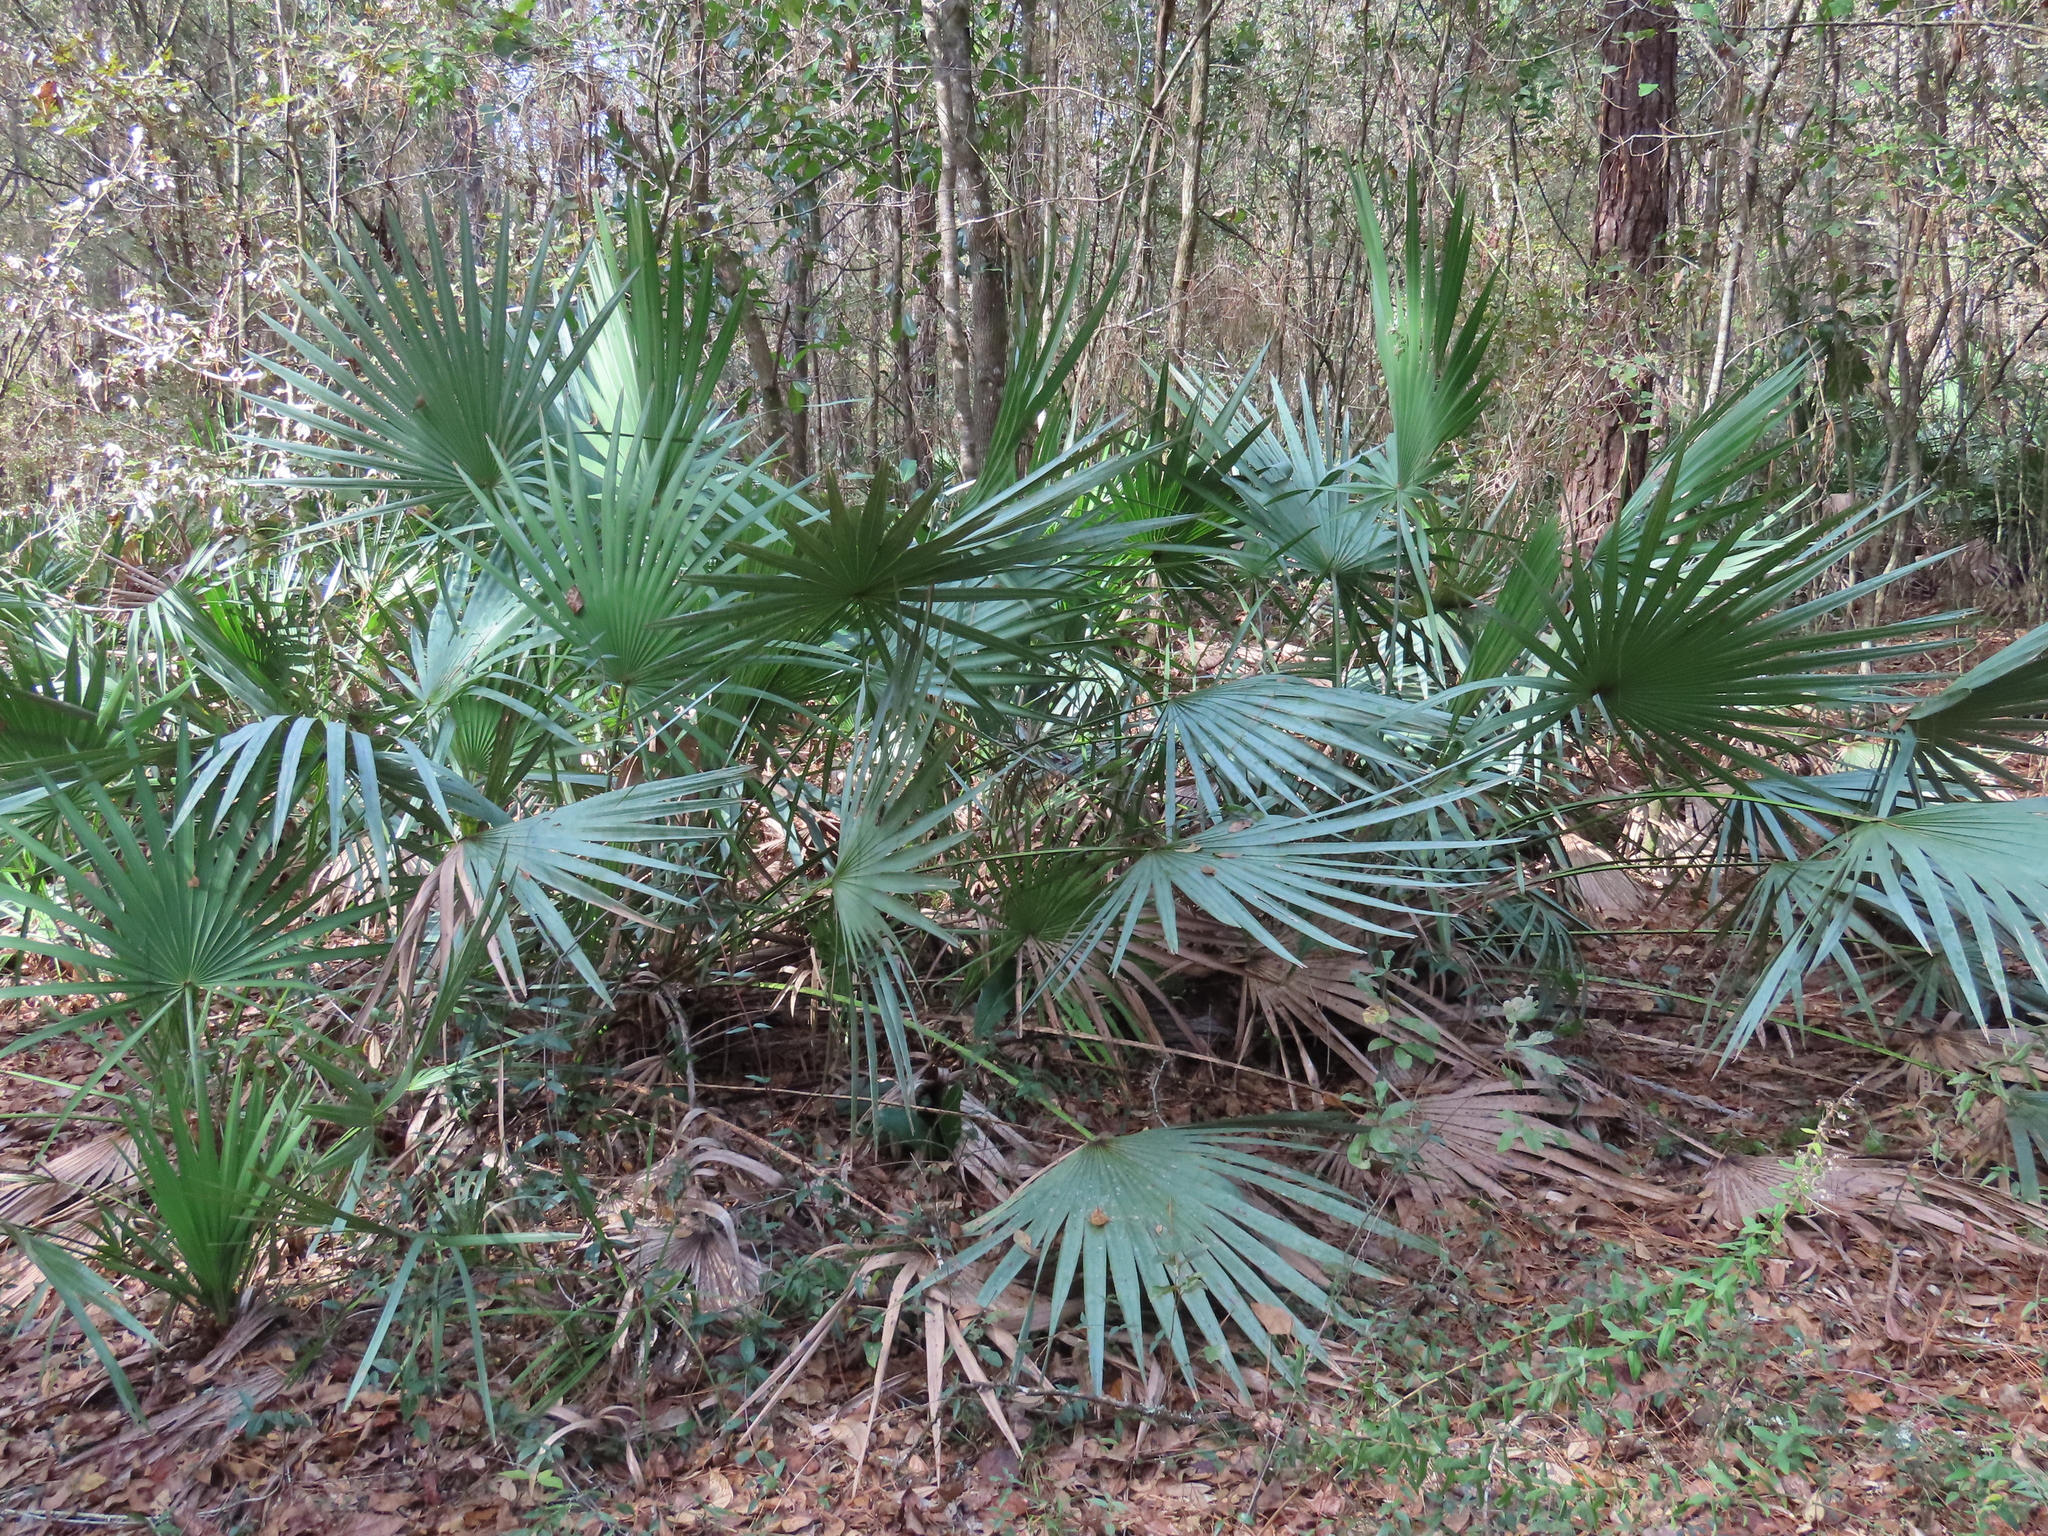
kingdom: Plantae
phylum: Tracheophyta
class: Liliopsida
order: Arecales
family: Arecaceae
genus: Serenoa
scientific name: Serenoa repens
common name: Saw-palmetto
